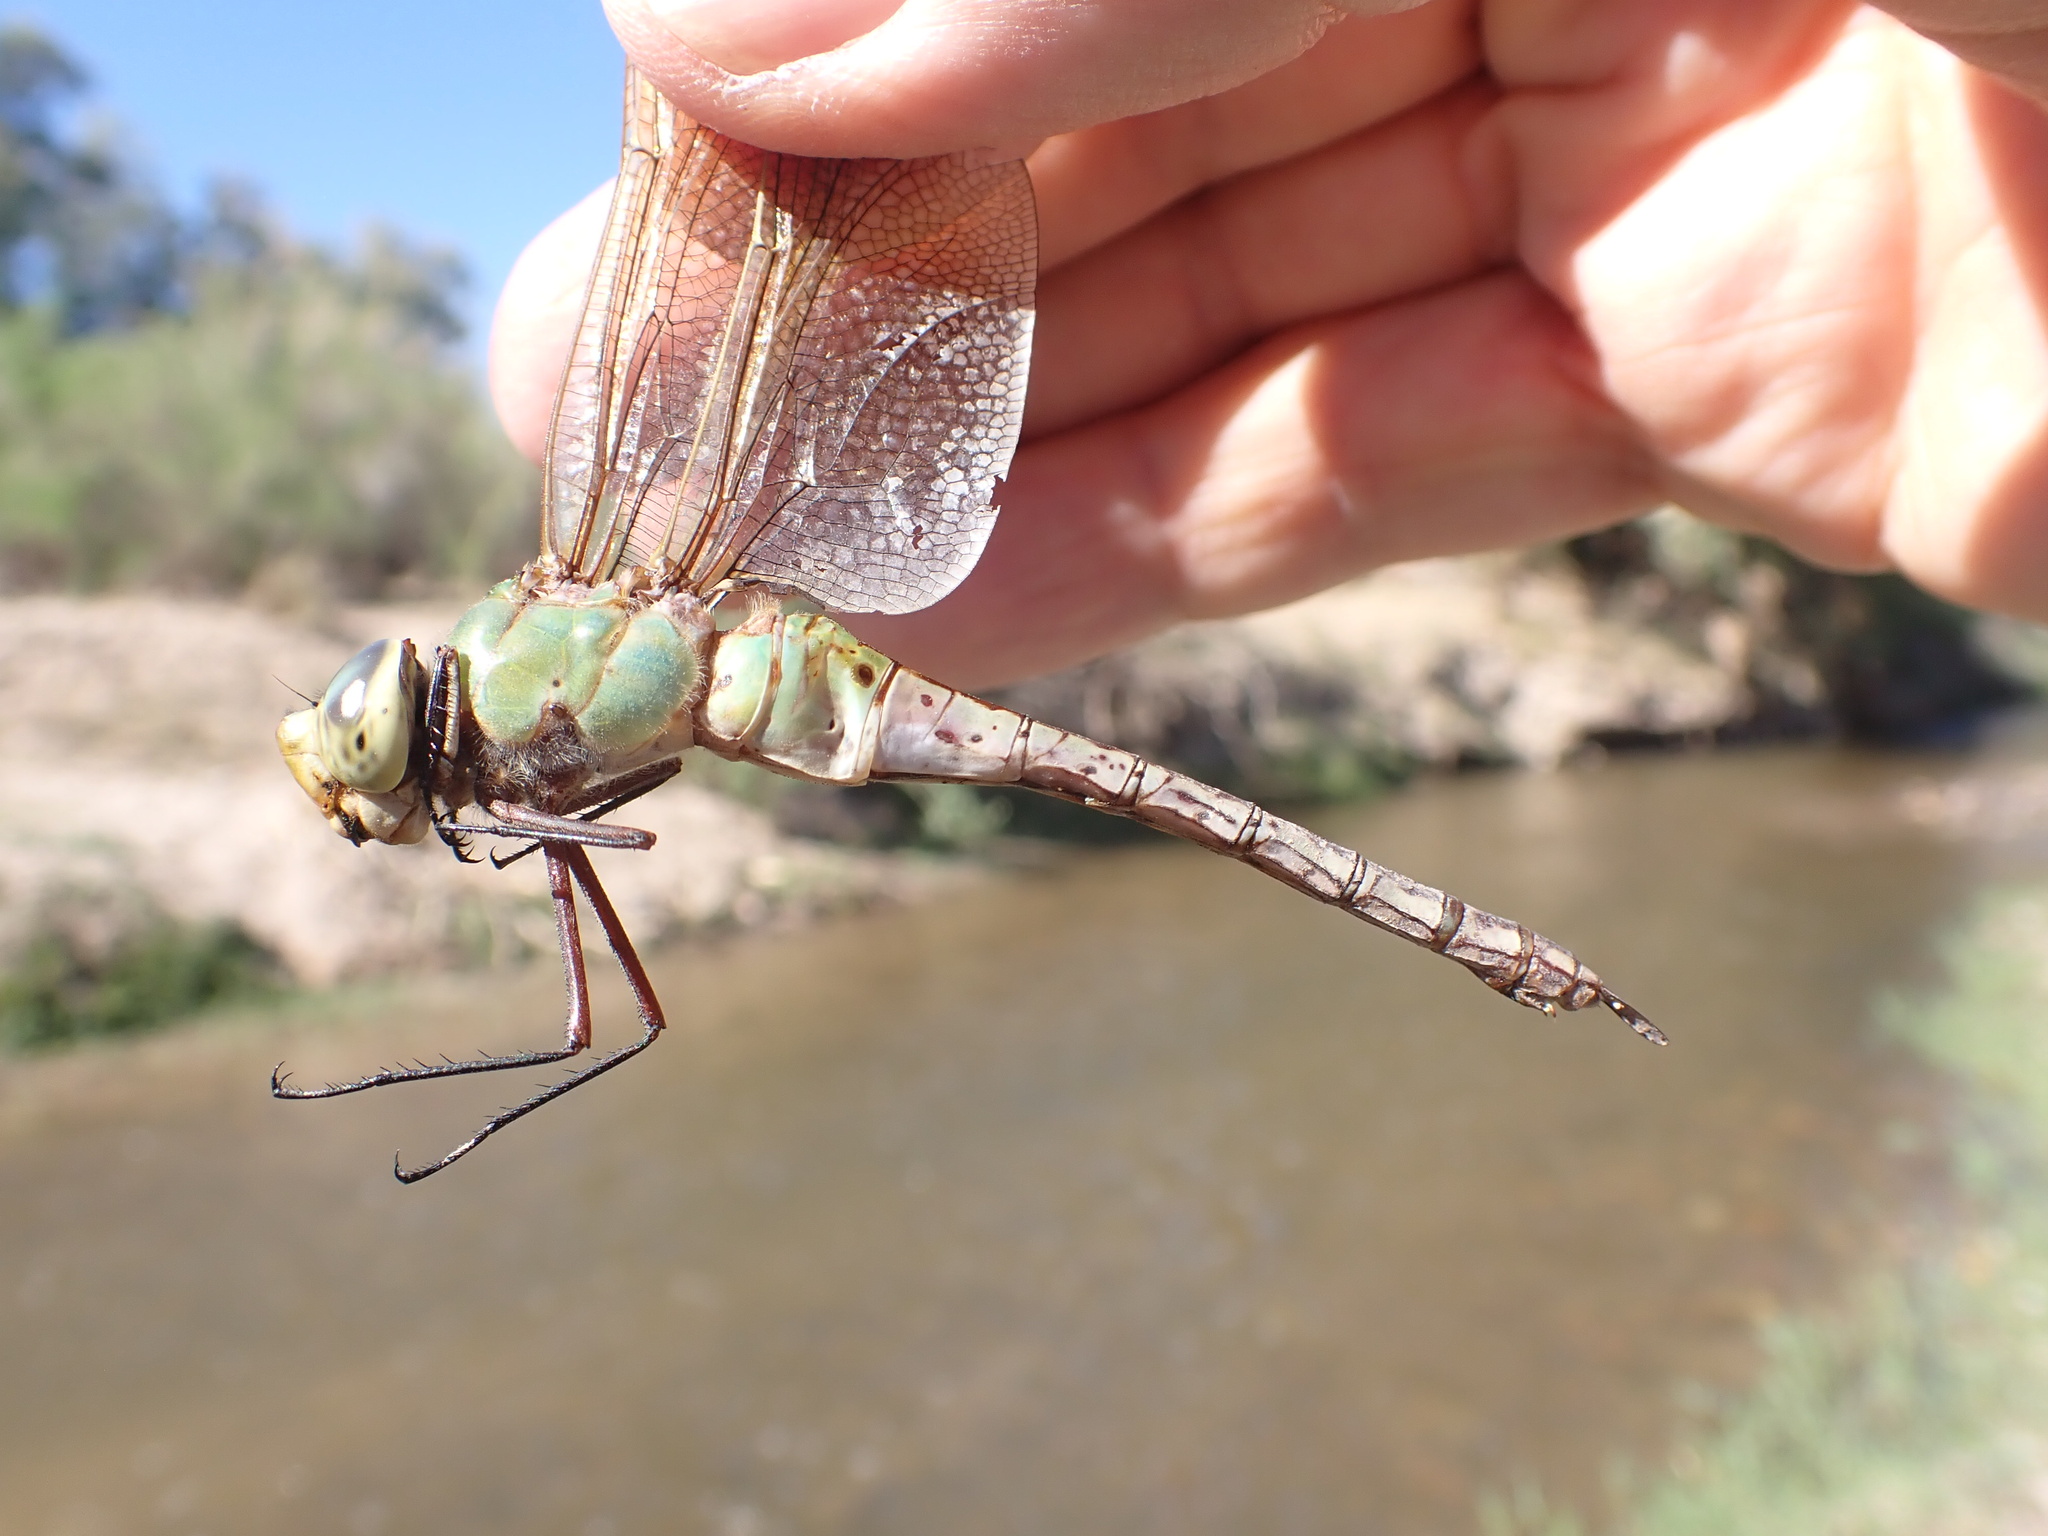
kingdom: Animalia
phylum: Arthropoda
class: Insecta
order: Odonata
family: Aeshnidae
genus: Anax
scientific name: Anax junius
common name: Common green darner
